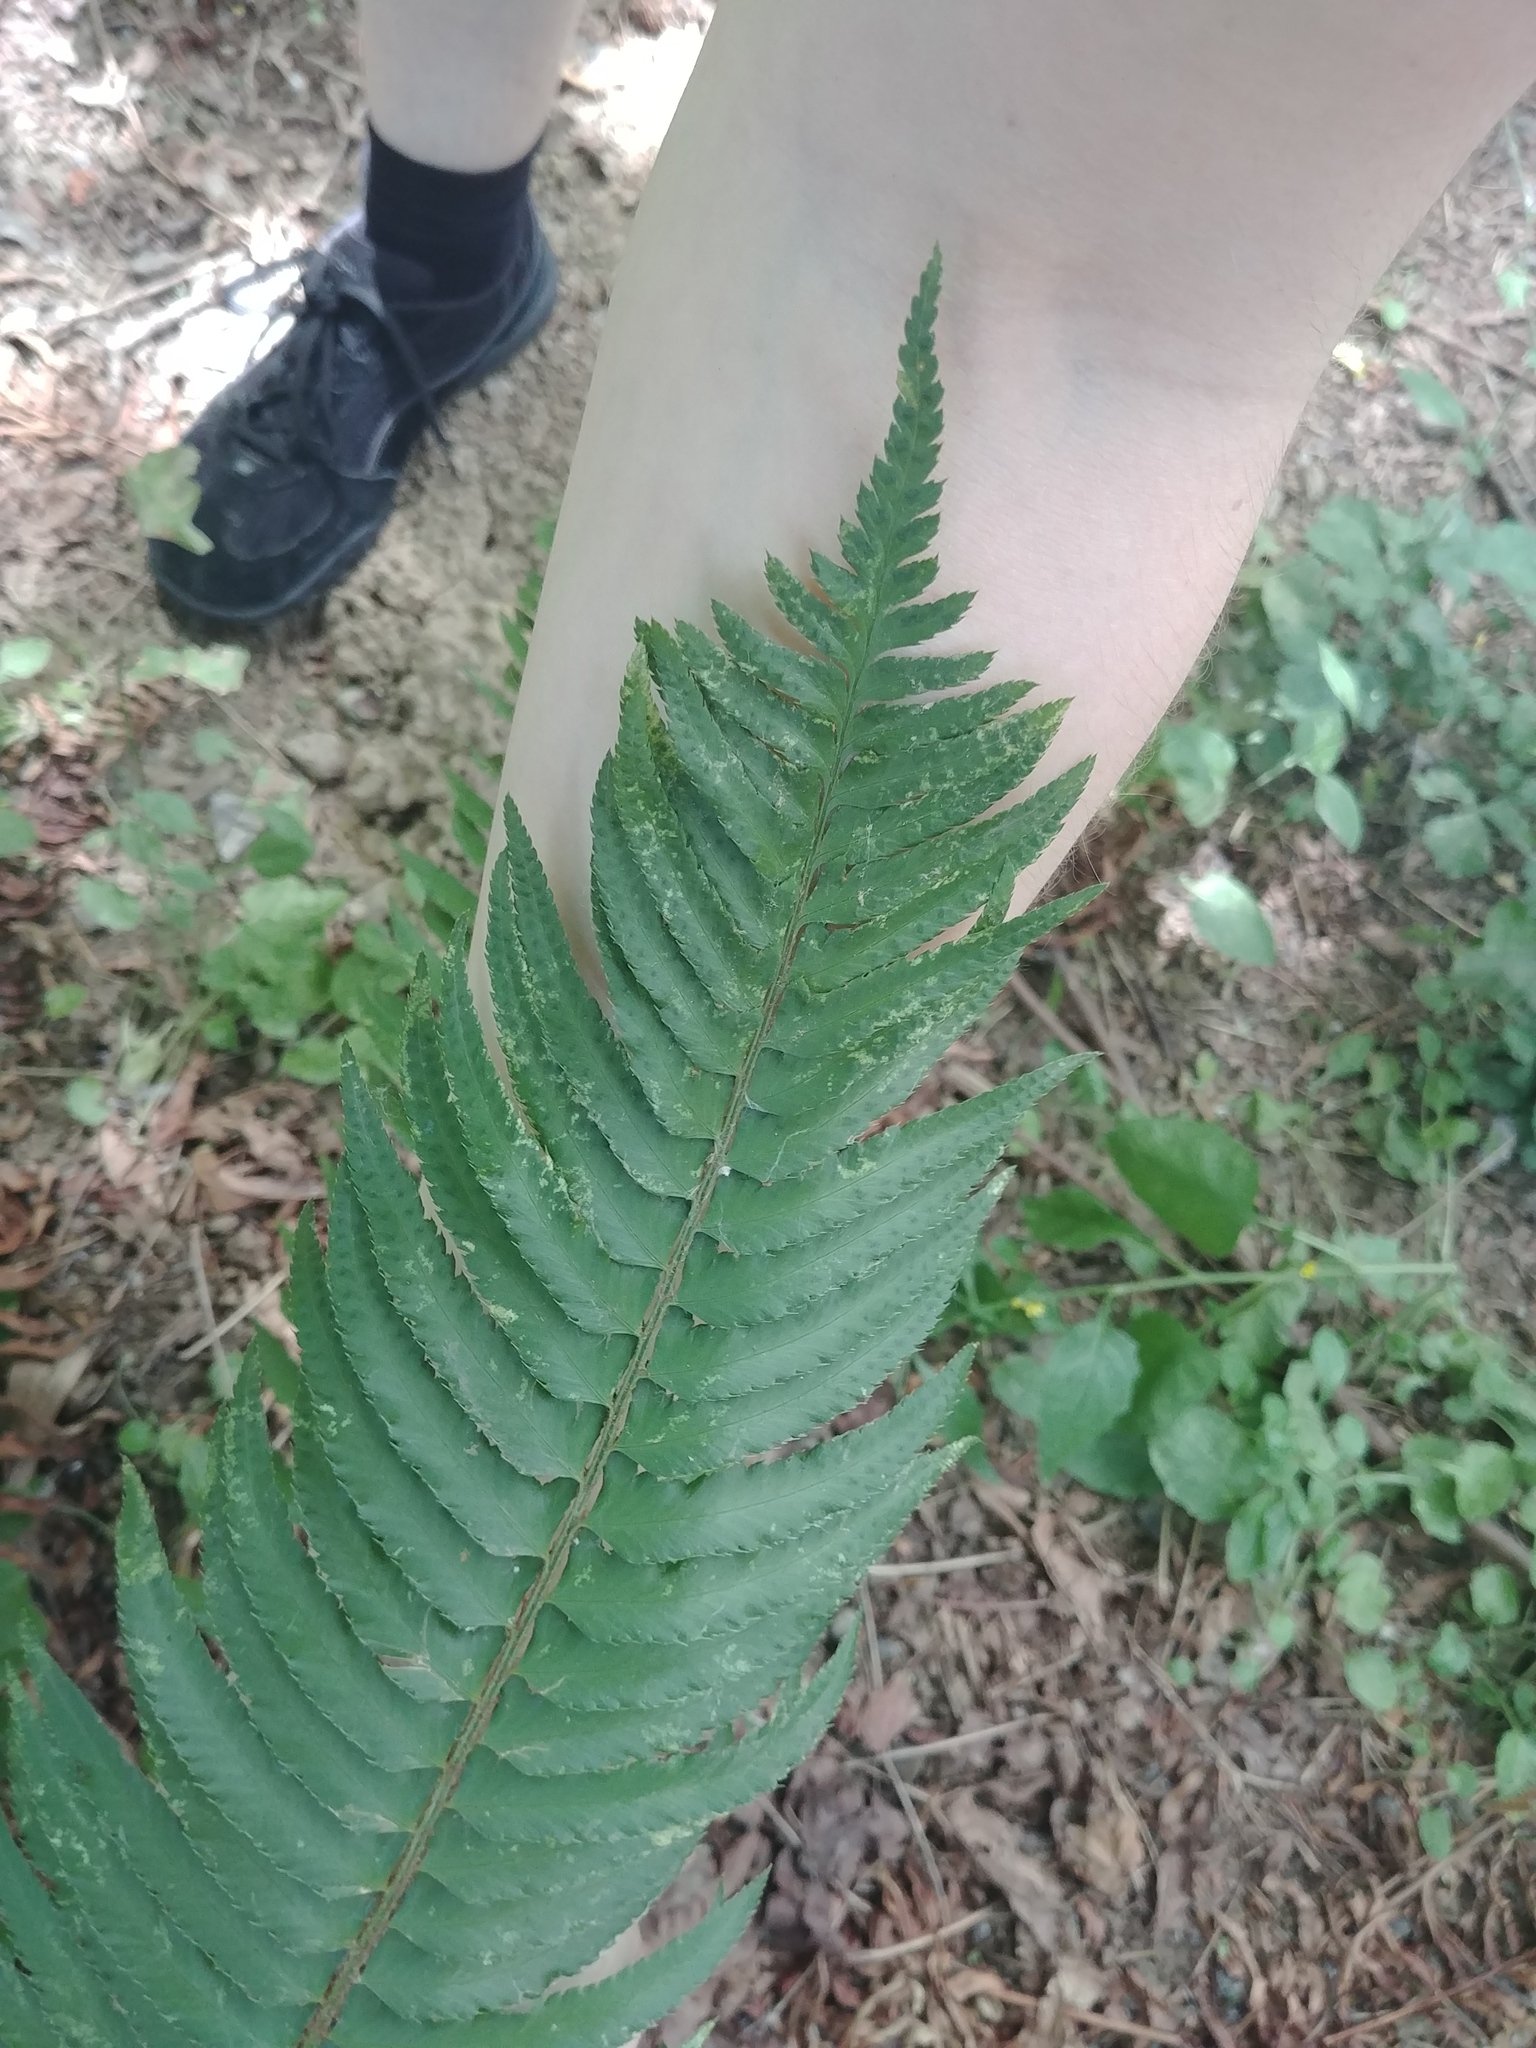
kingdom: Plantae
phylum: Tracheophyta
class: Polypodiopsida
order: Polypodiales
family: Dryopteridaceae
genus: Polystichum
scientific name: Polystichum munitum
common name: Western sword-fern
